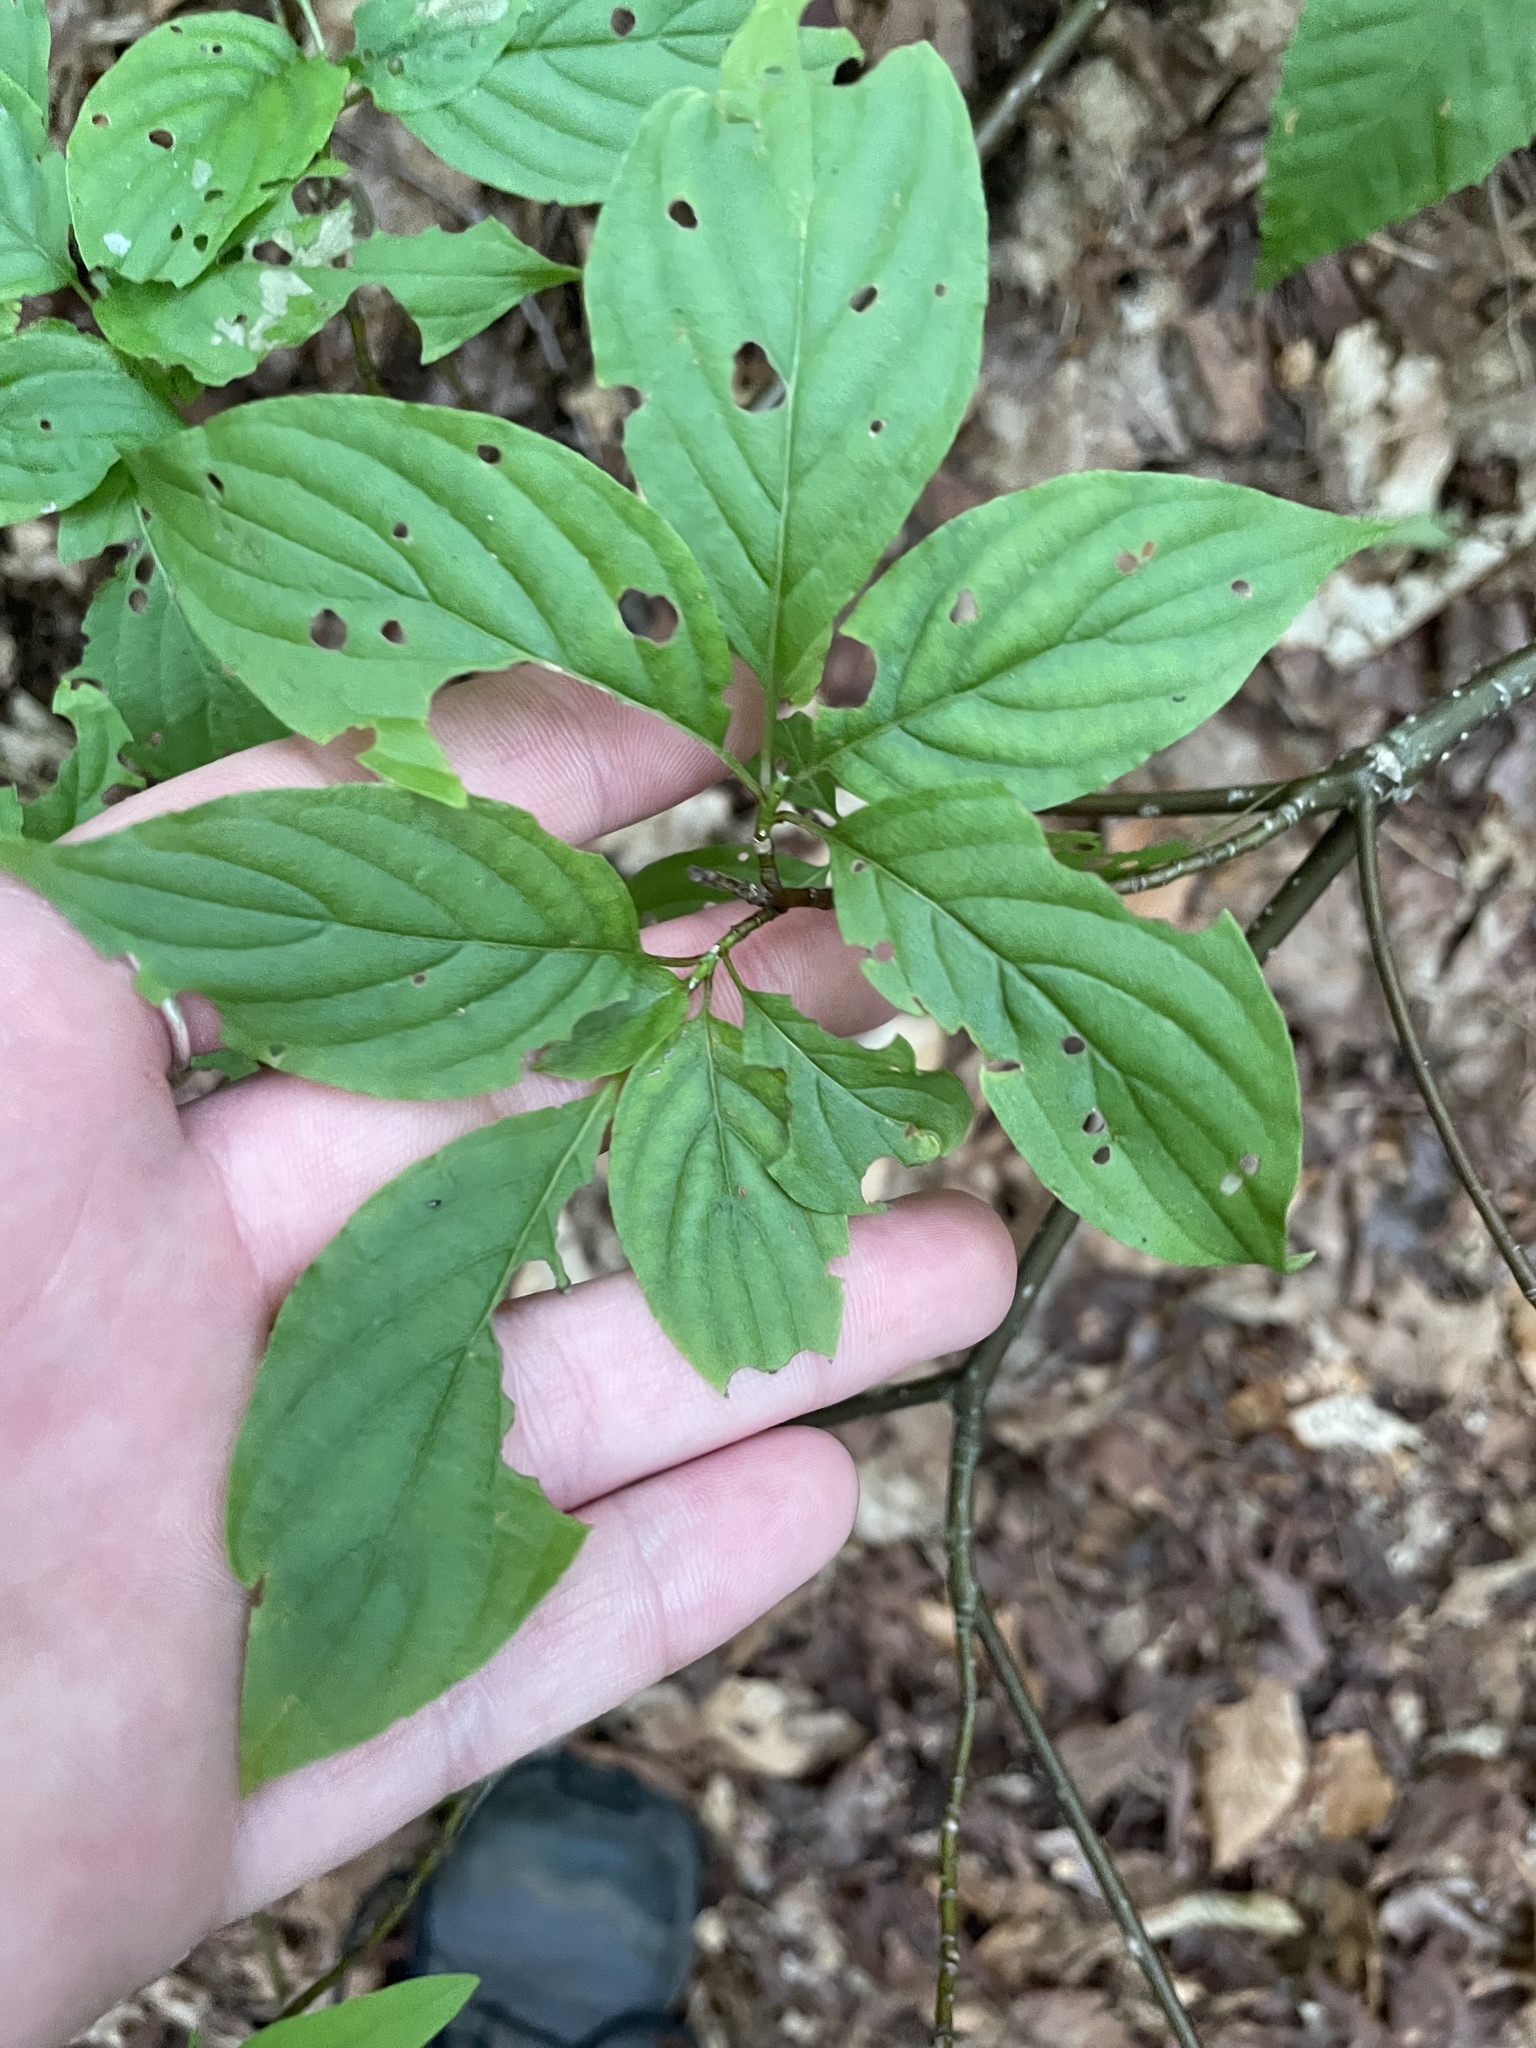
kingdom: Plantae
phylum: Tracheophyta
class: Magnoliopsida
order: Cornales
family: Cornaceae
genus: Cornus
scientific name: Cornus alternifolia
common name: Pagoda dogwood
